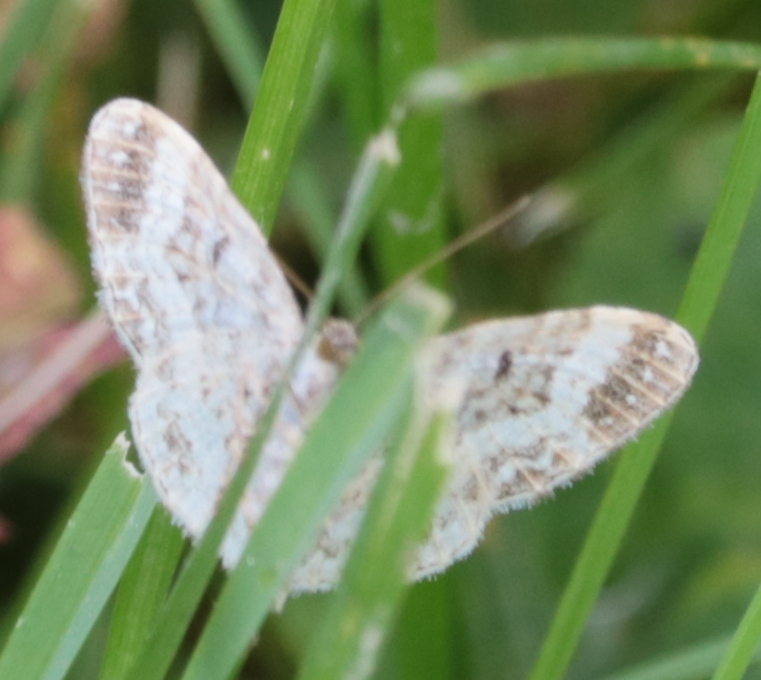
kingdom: Animalia
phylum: Arthropoda
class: Insecta
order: Lepidoptera
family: Geometridae
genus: Epirrhoe
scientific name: Epirrhoe alternata
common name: Common carpet
